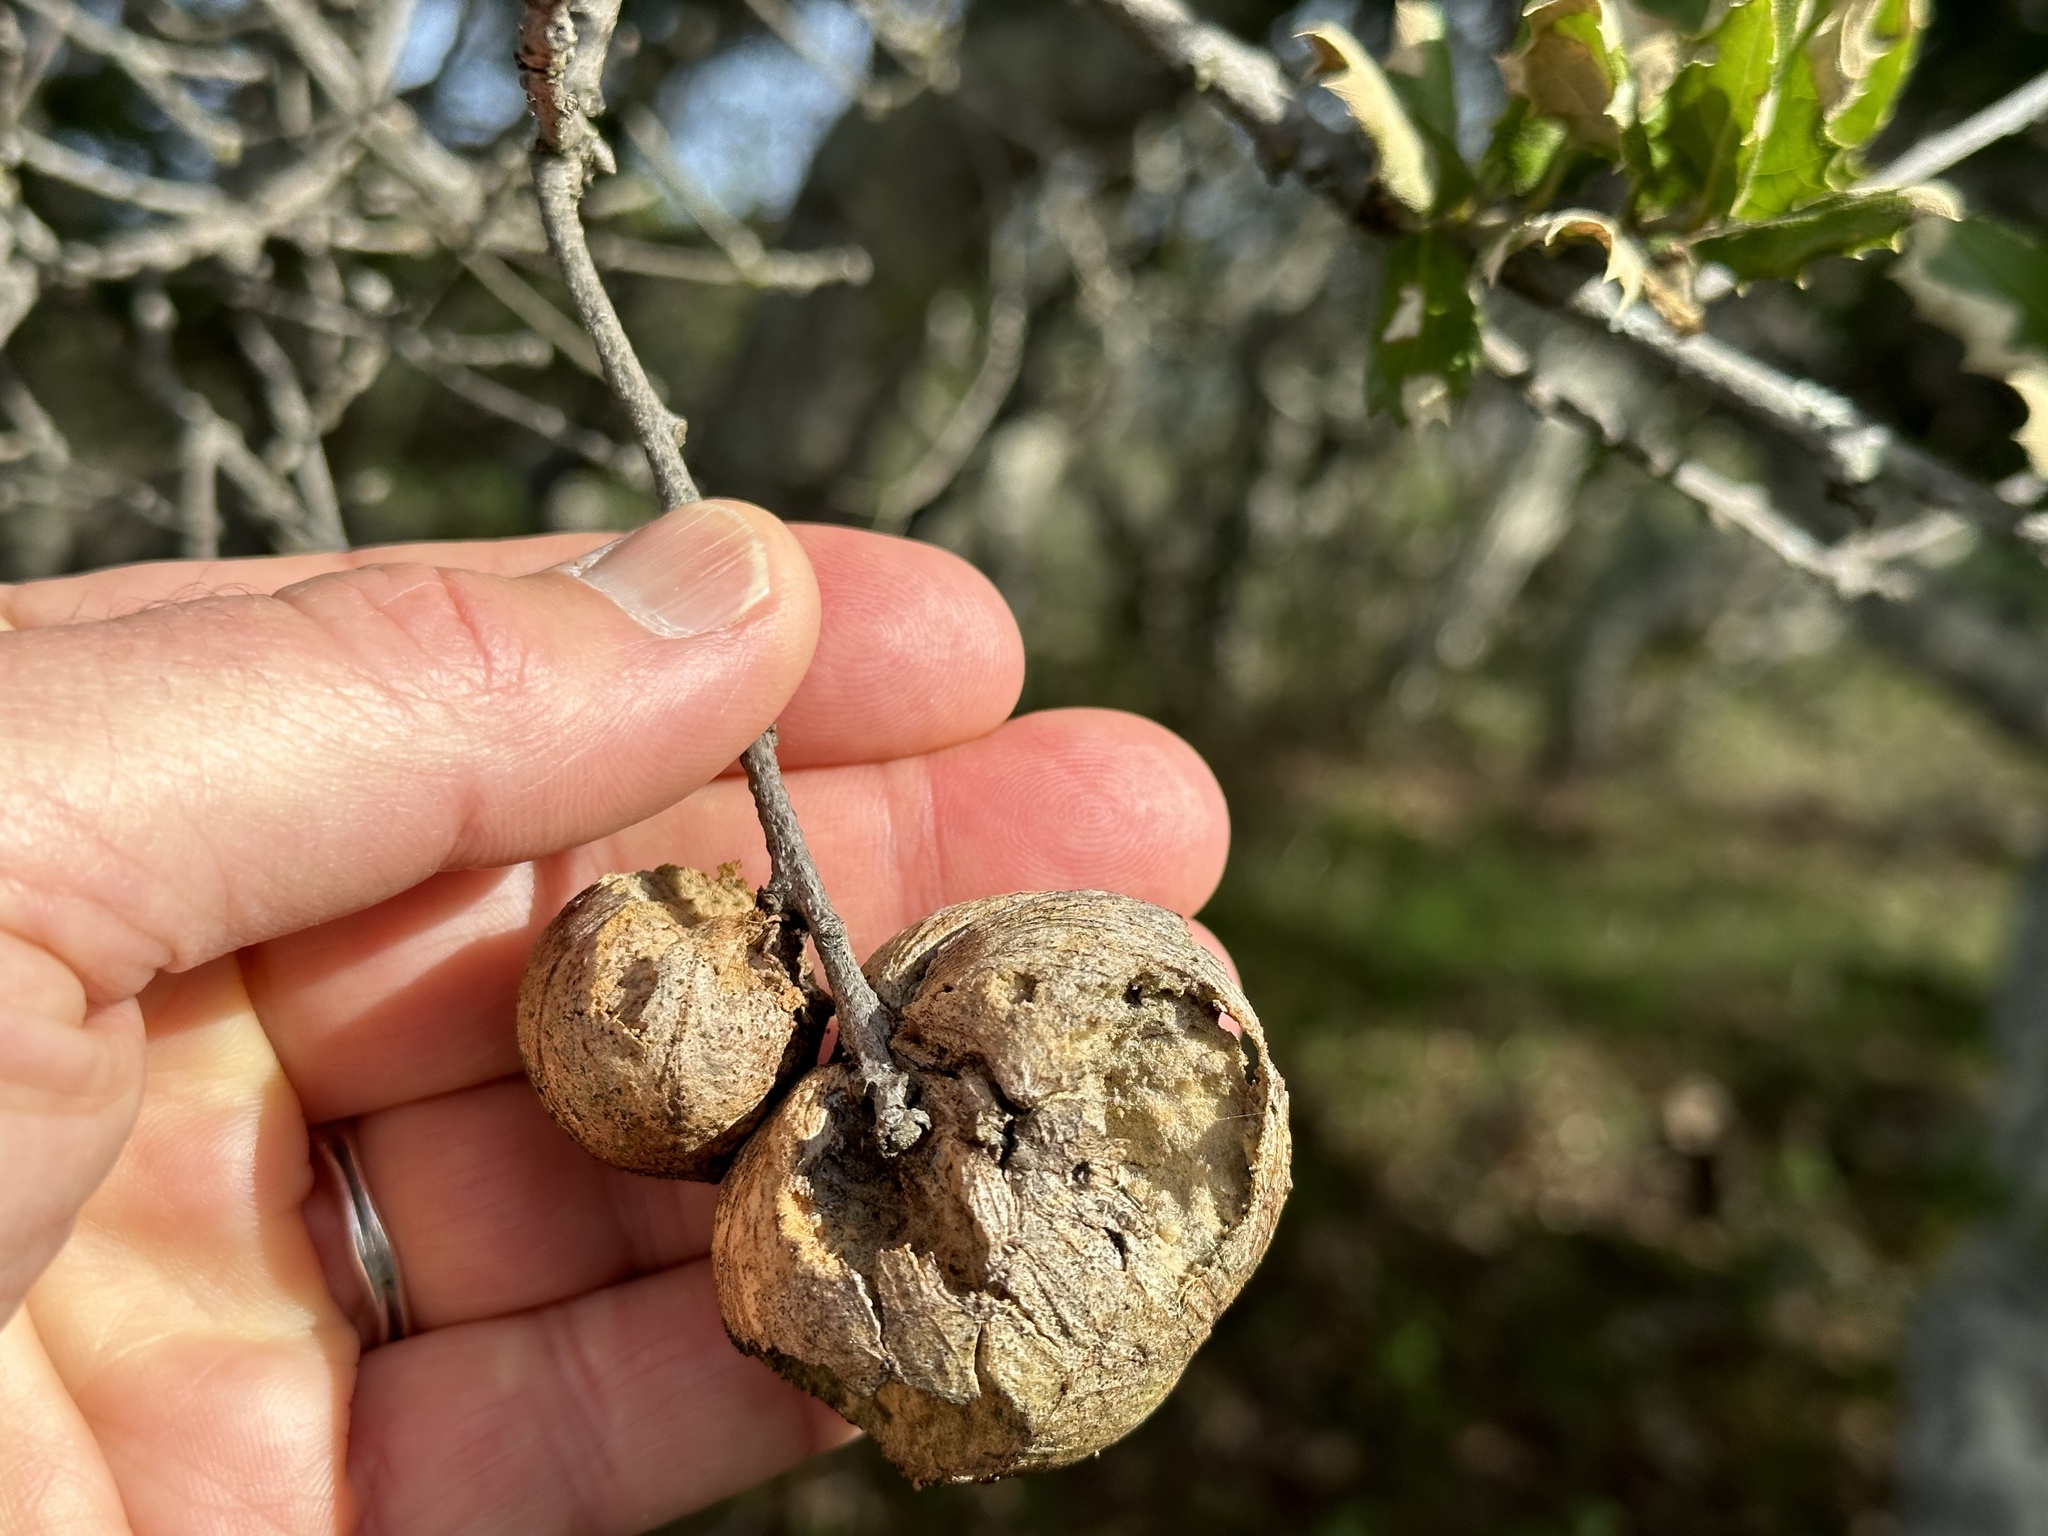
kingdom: Animalia
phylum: Arthropoda
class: Insecta
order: Hymenoptera
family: Cynipidae
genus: Amphibolips
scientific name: Amphibolips quercuspomiformis
